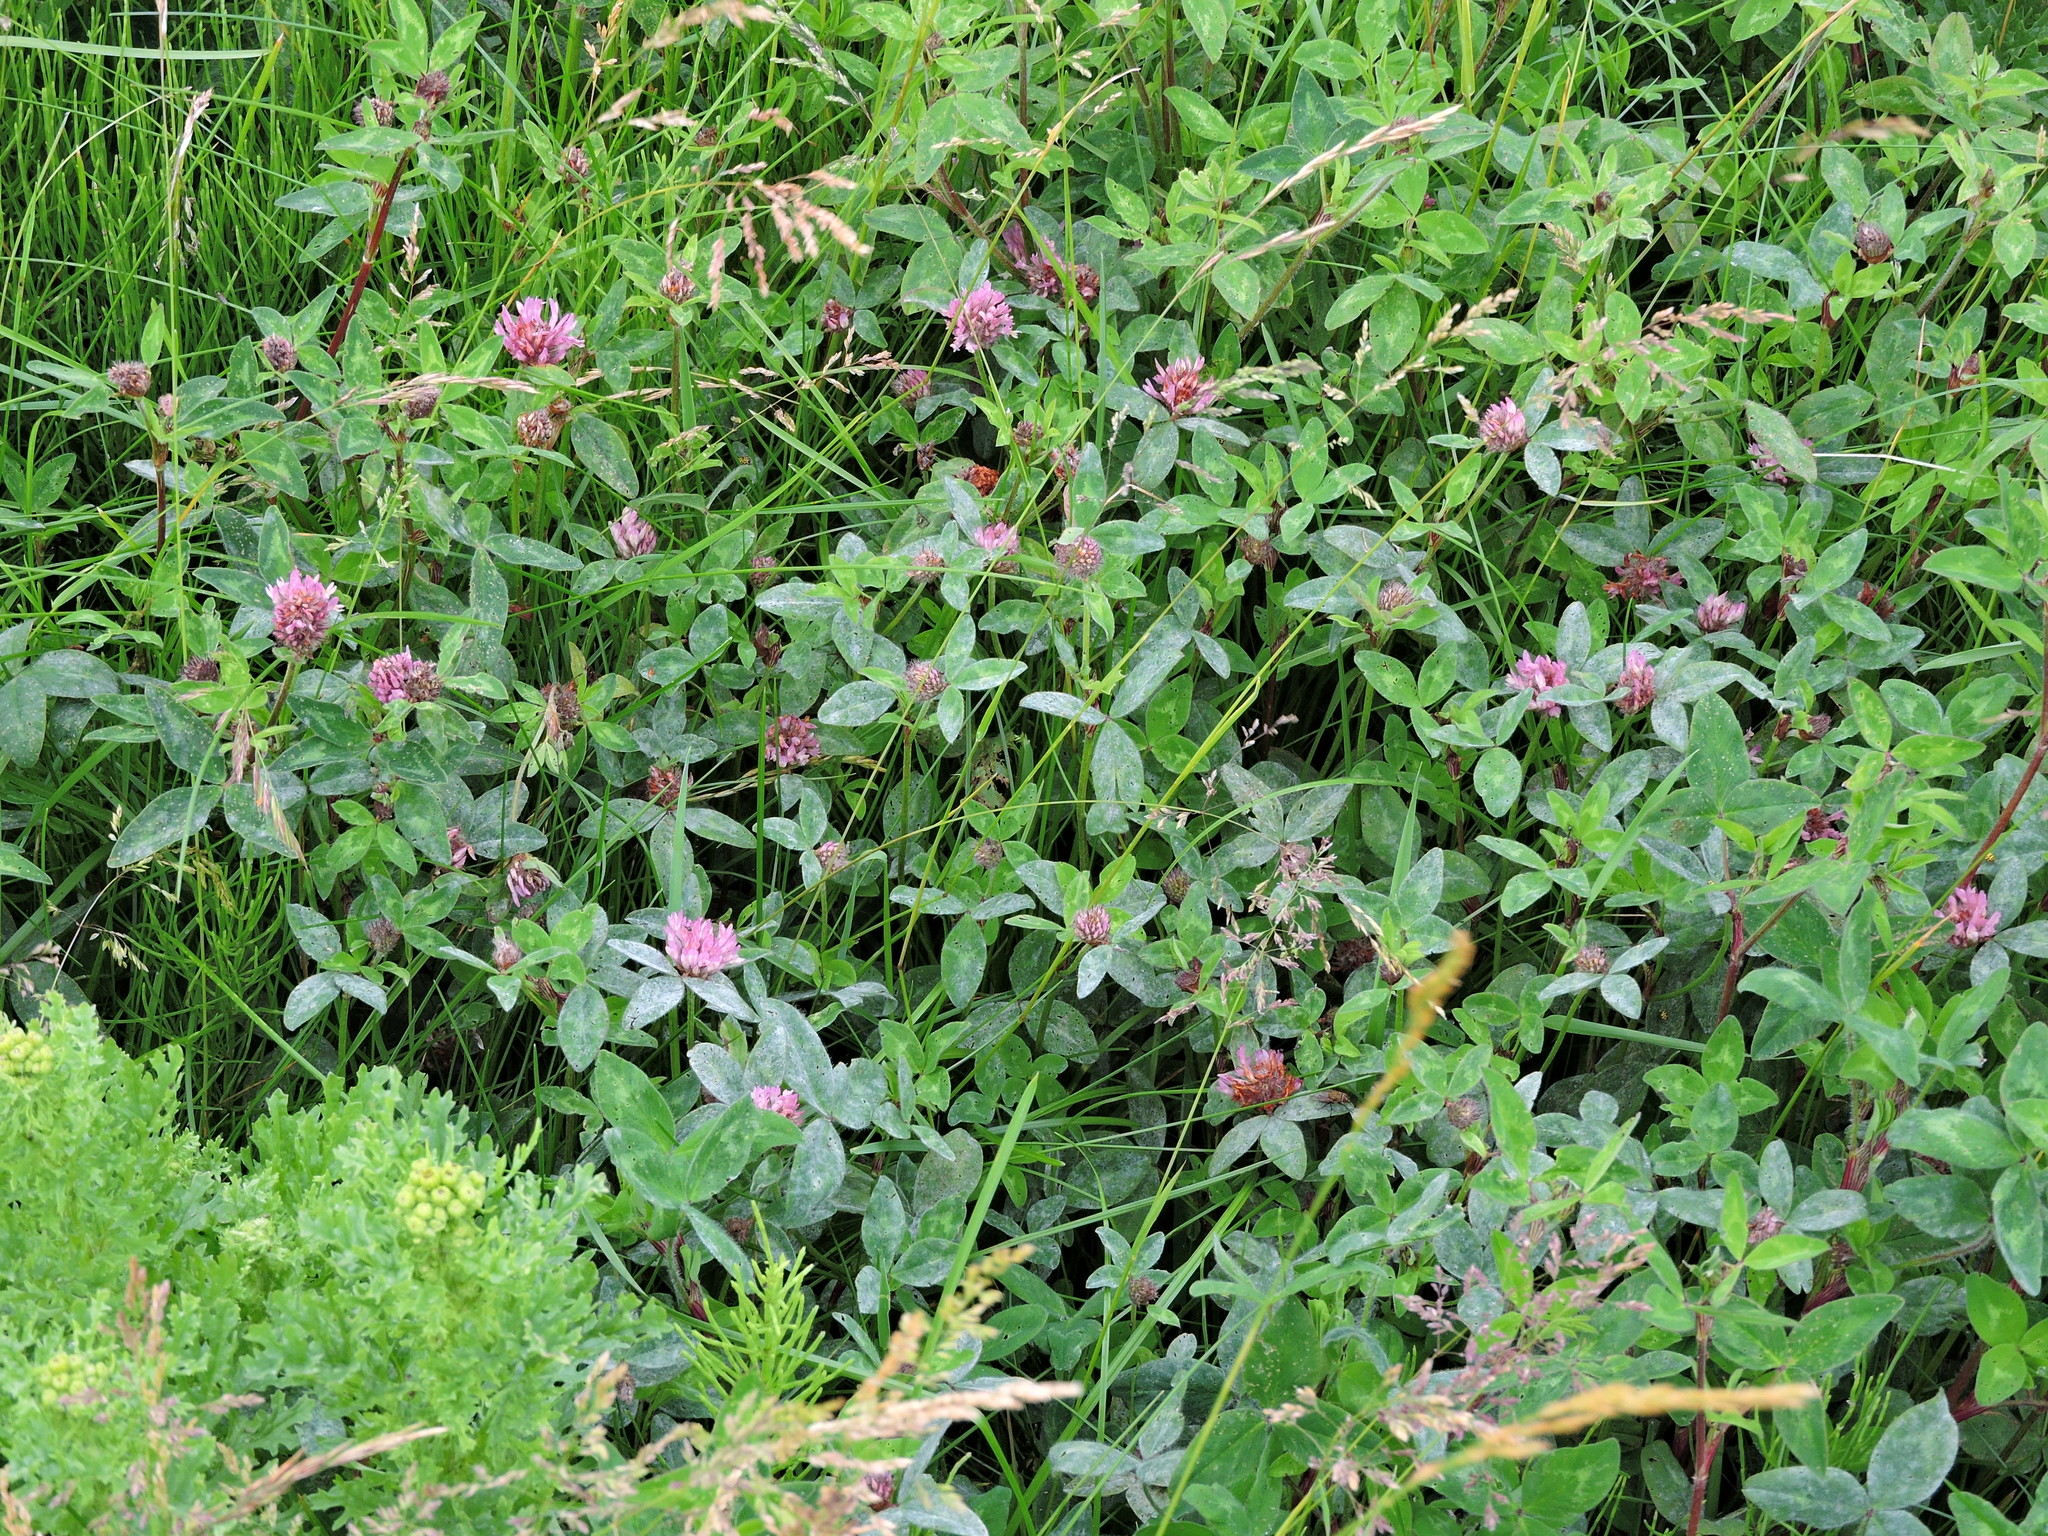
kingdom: Plantae
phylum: Tracheophyta
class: Magnoliopsida
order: Fabales
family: Fabaceae
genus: Trifolium
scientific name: Trifolium pratense
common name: Red clover
